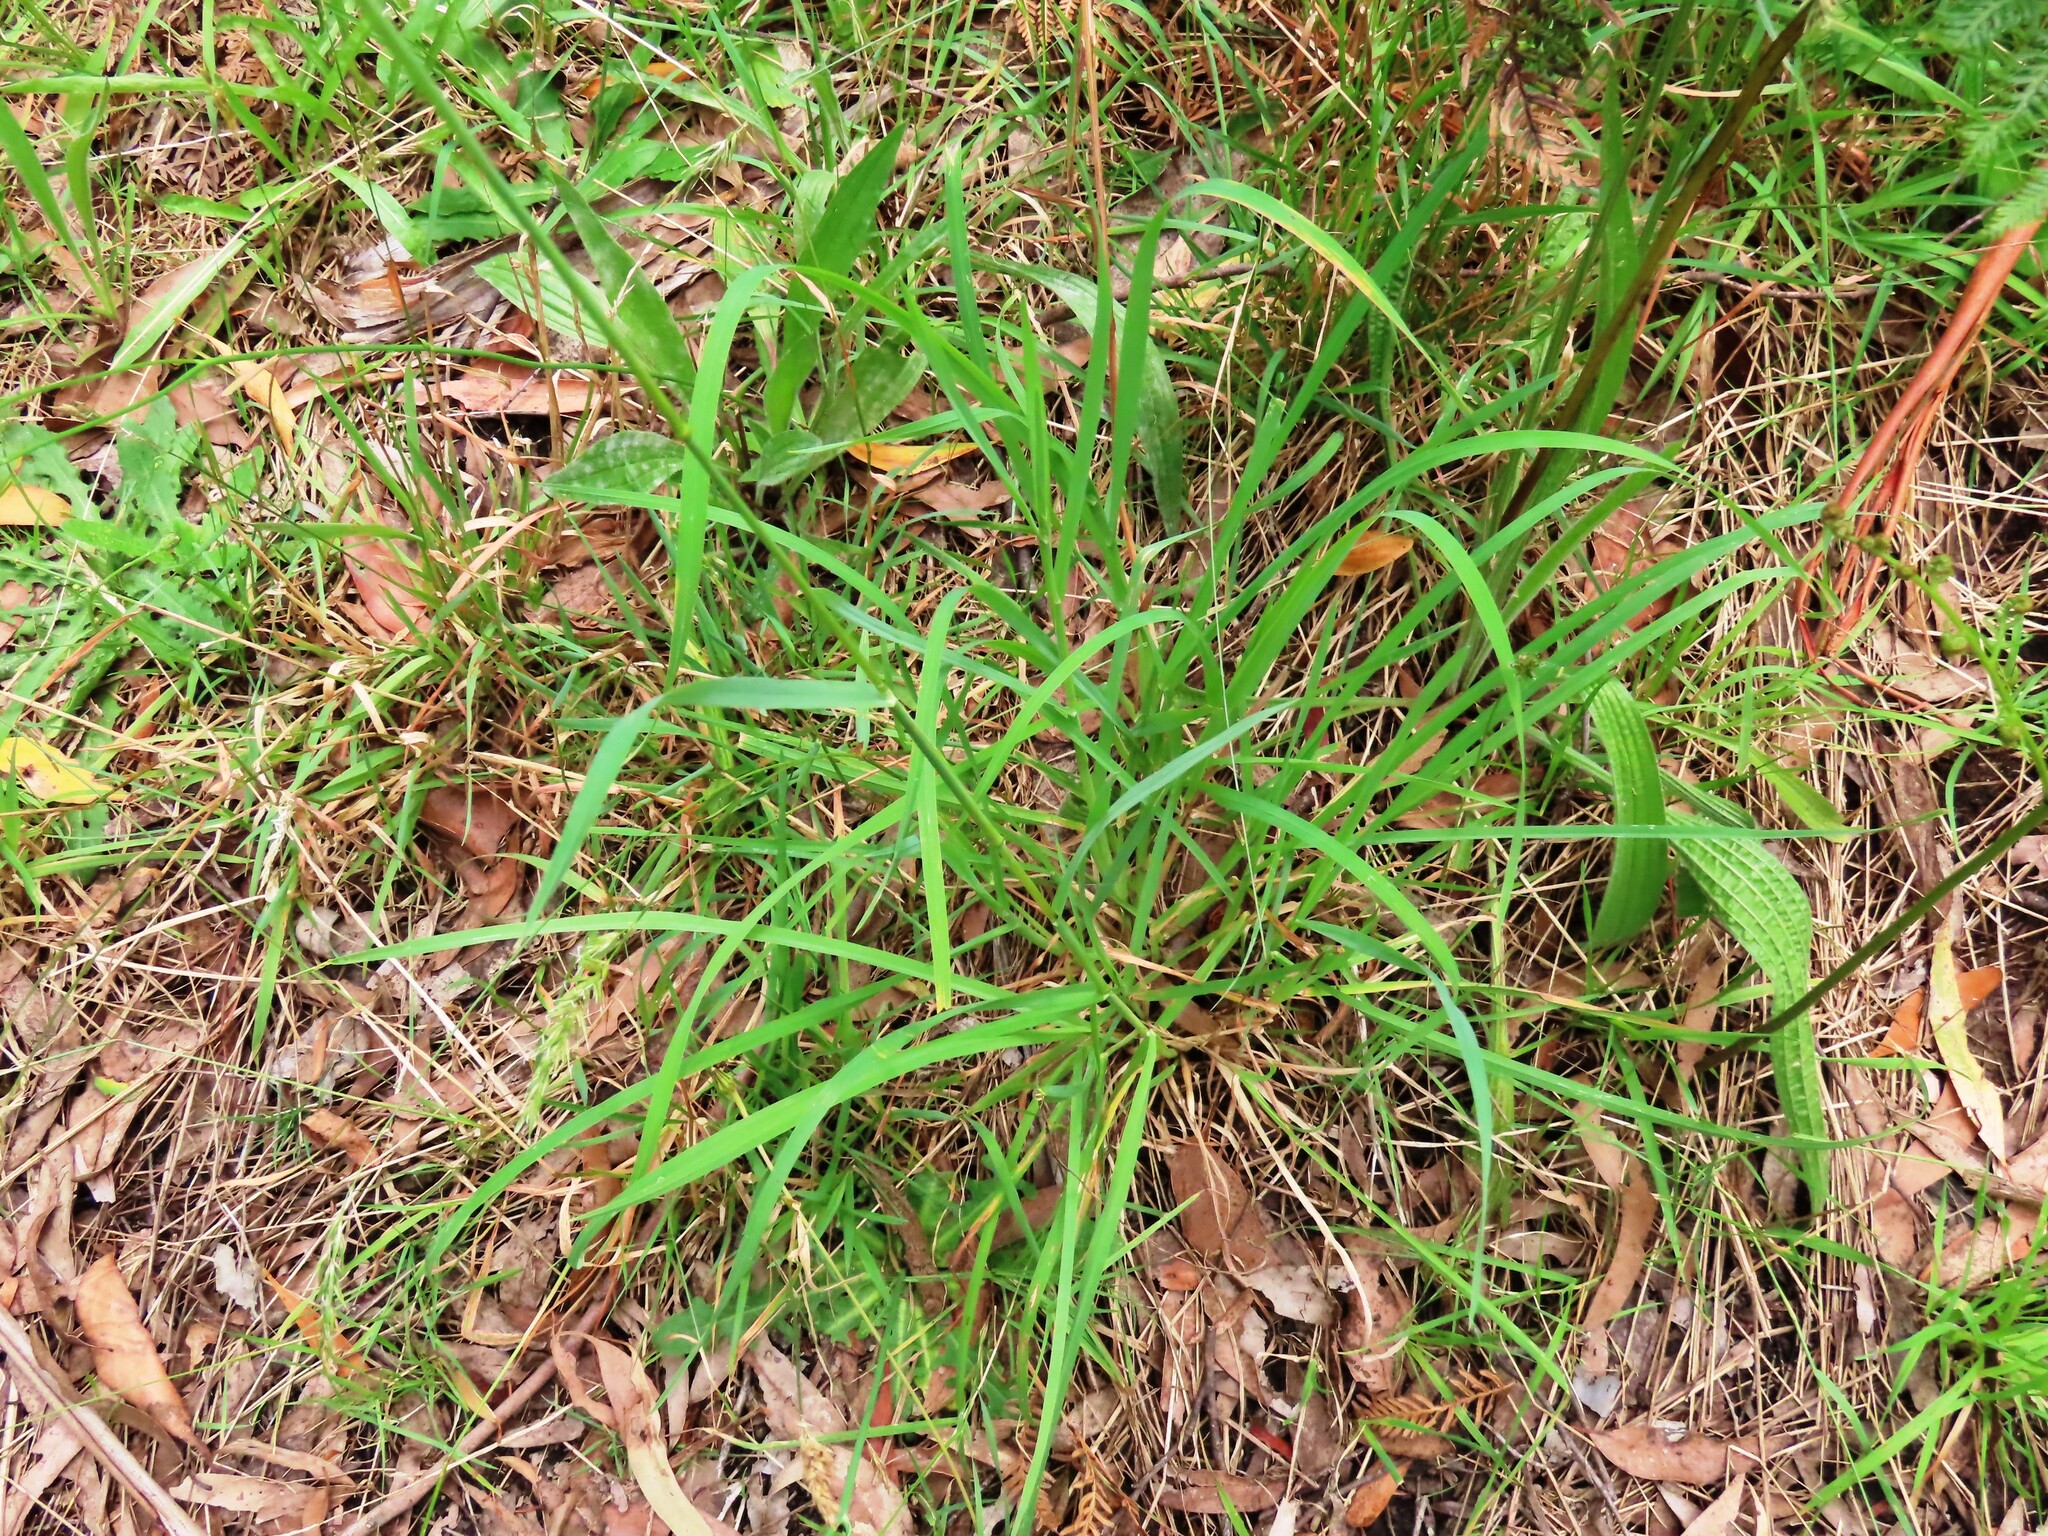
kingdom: Plantae
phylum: Tracheophyta
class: Liliopsida
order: Poales
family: Poaceae
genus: Dactylis
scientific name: Dactylis glomerata
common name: Orchardgrass
